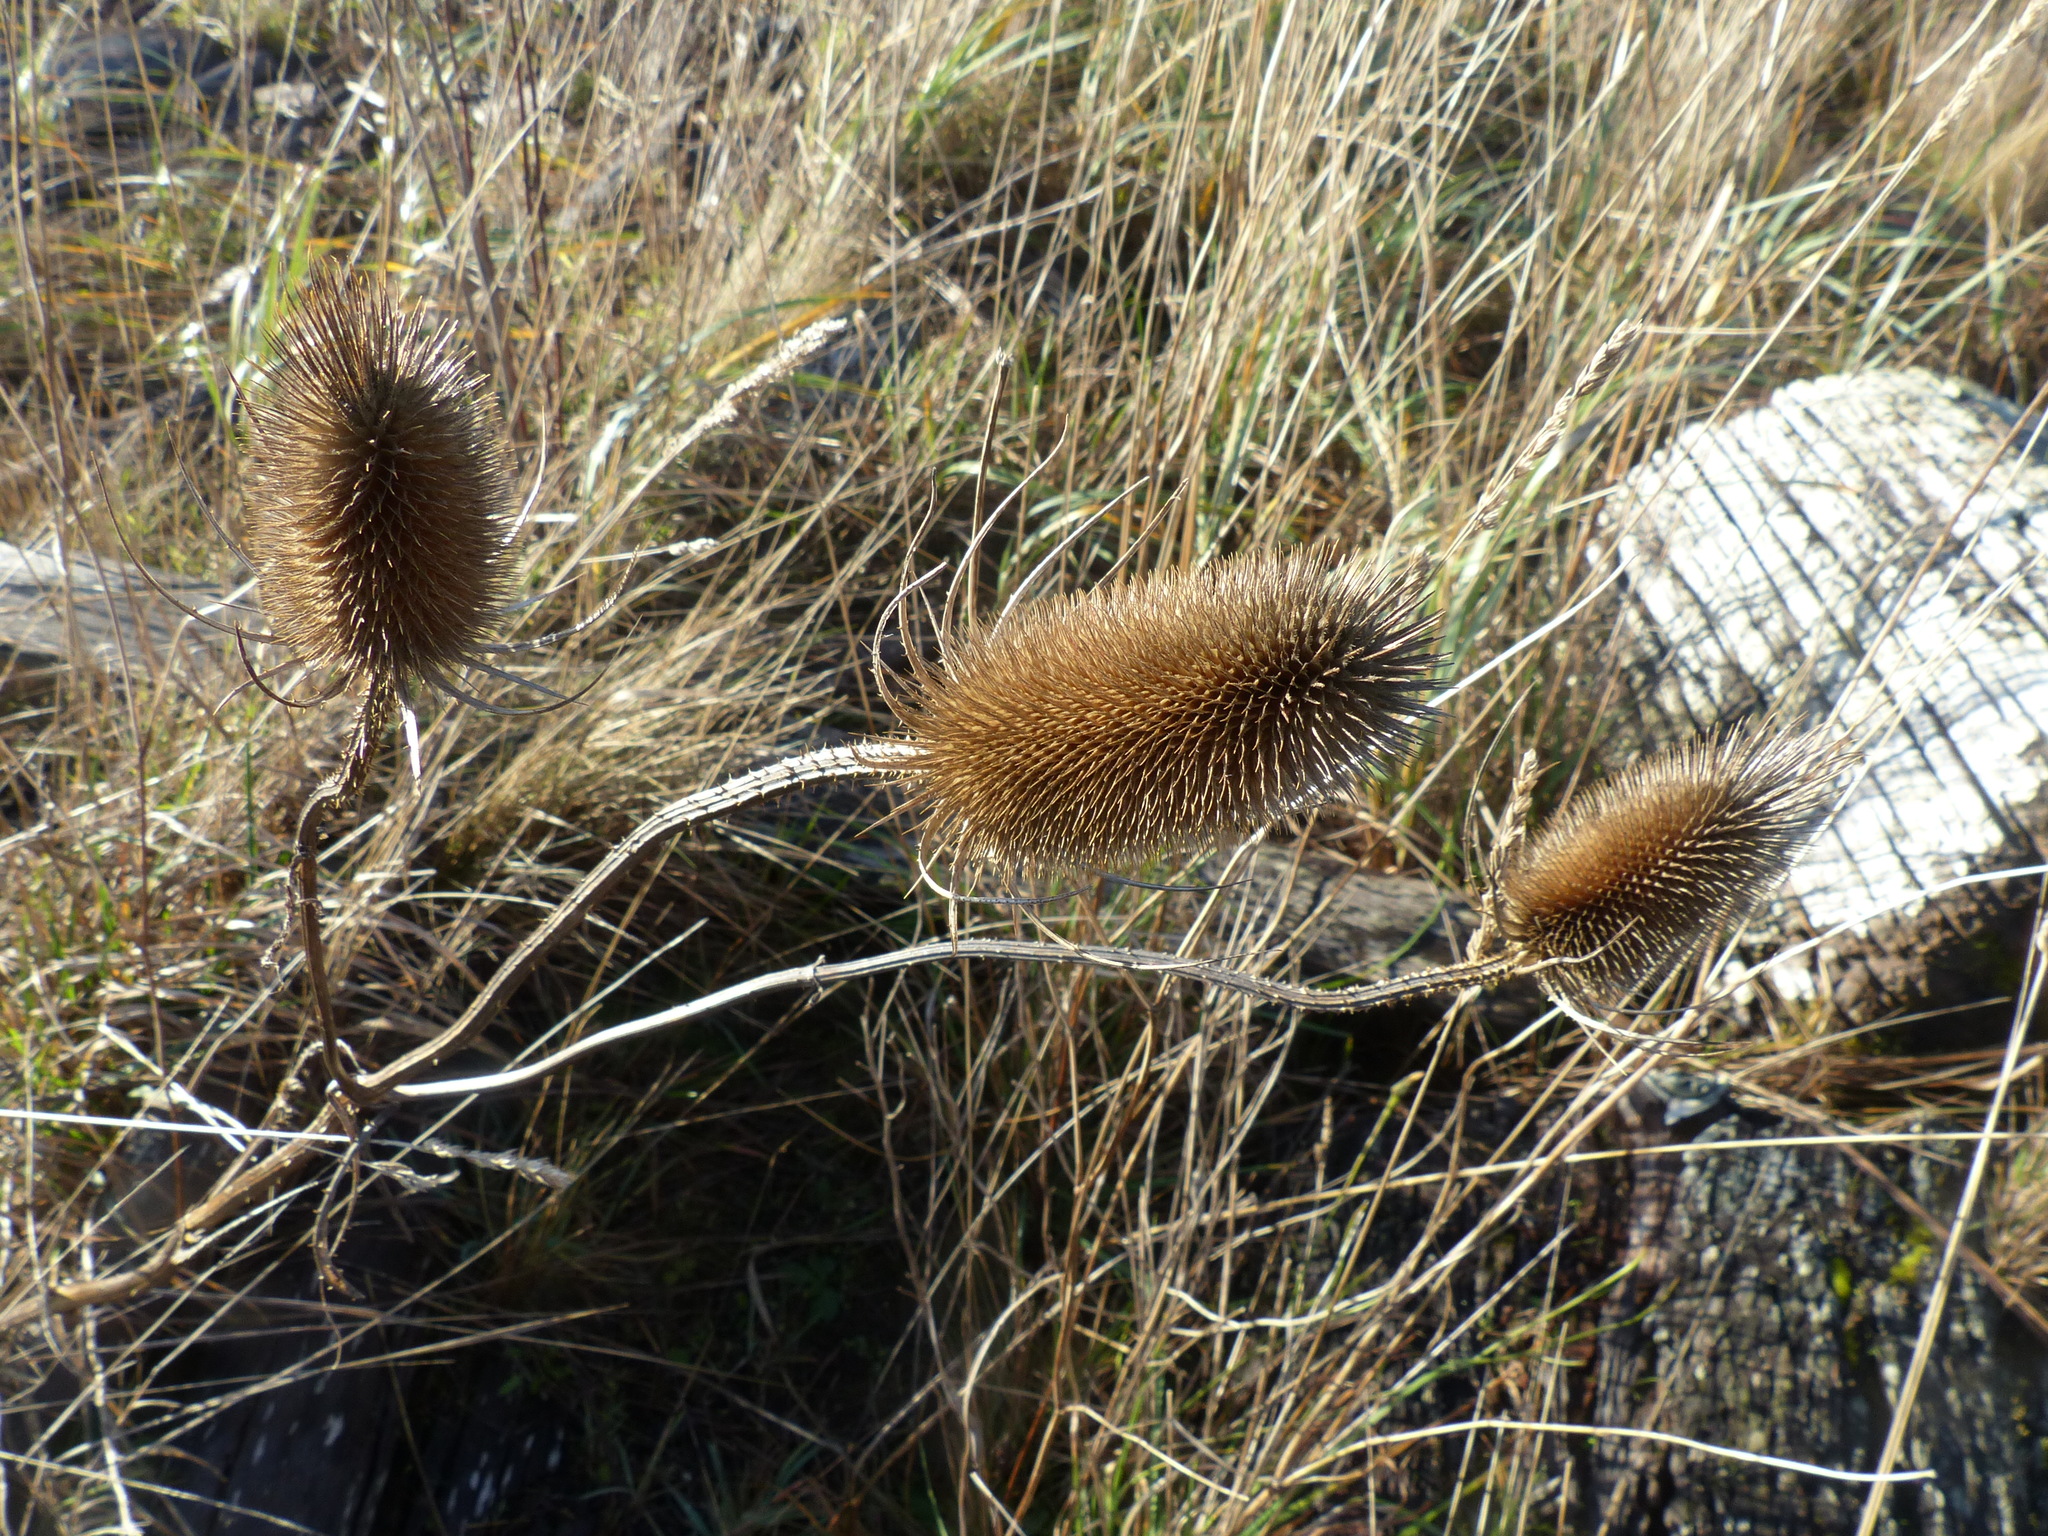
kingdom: Plantae
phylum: Tracheophyta
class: Magnoliopsida
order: Dipsacales
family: Caprifoliaceae
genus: Dipsacus
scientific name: Dipsacus fullonum
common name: Teasel
